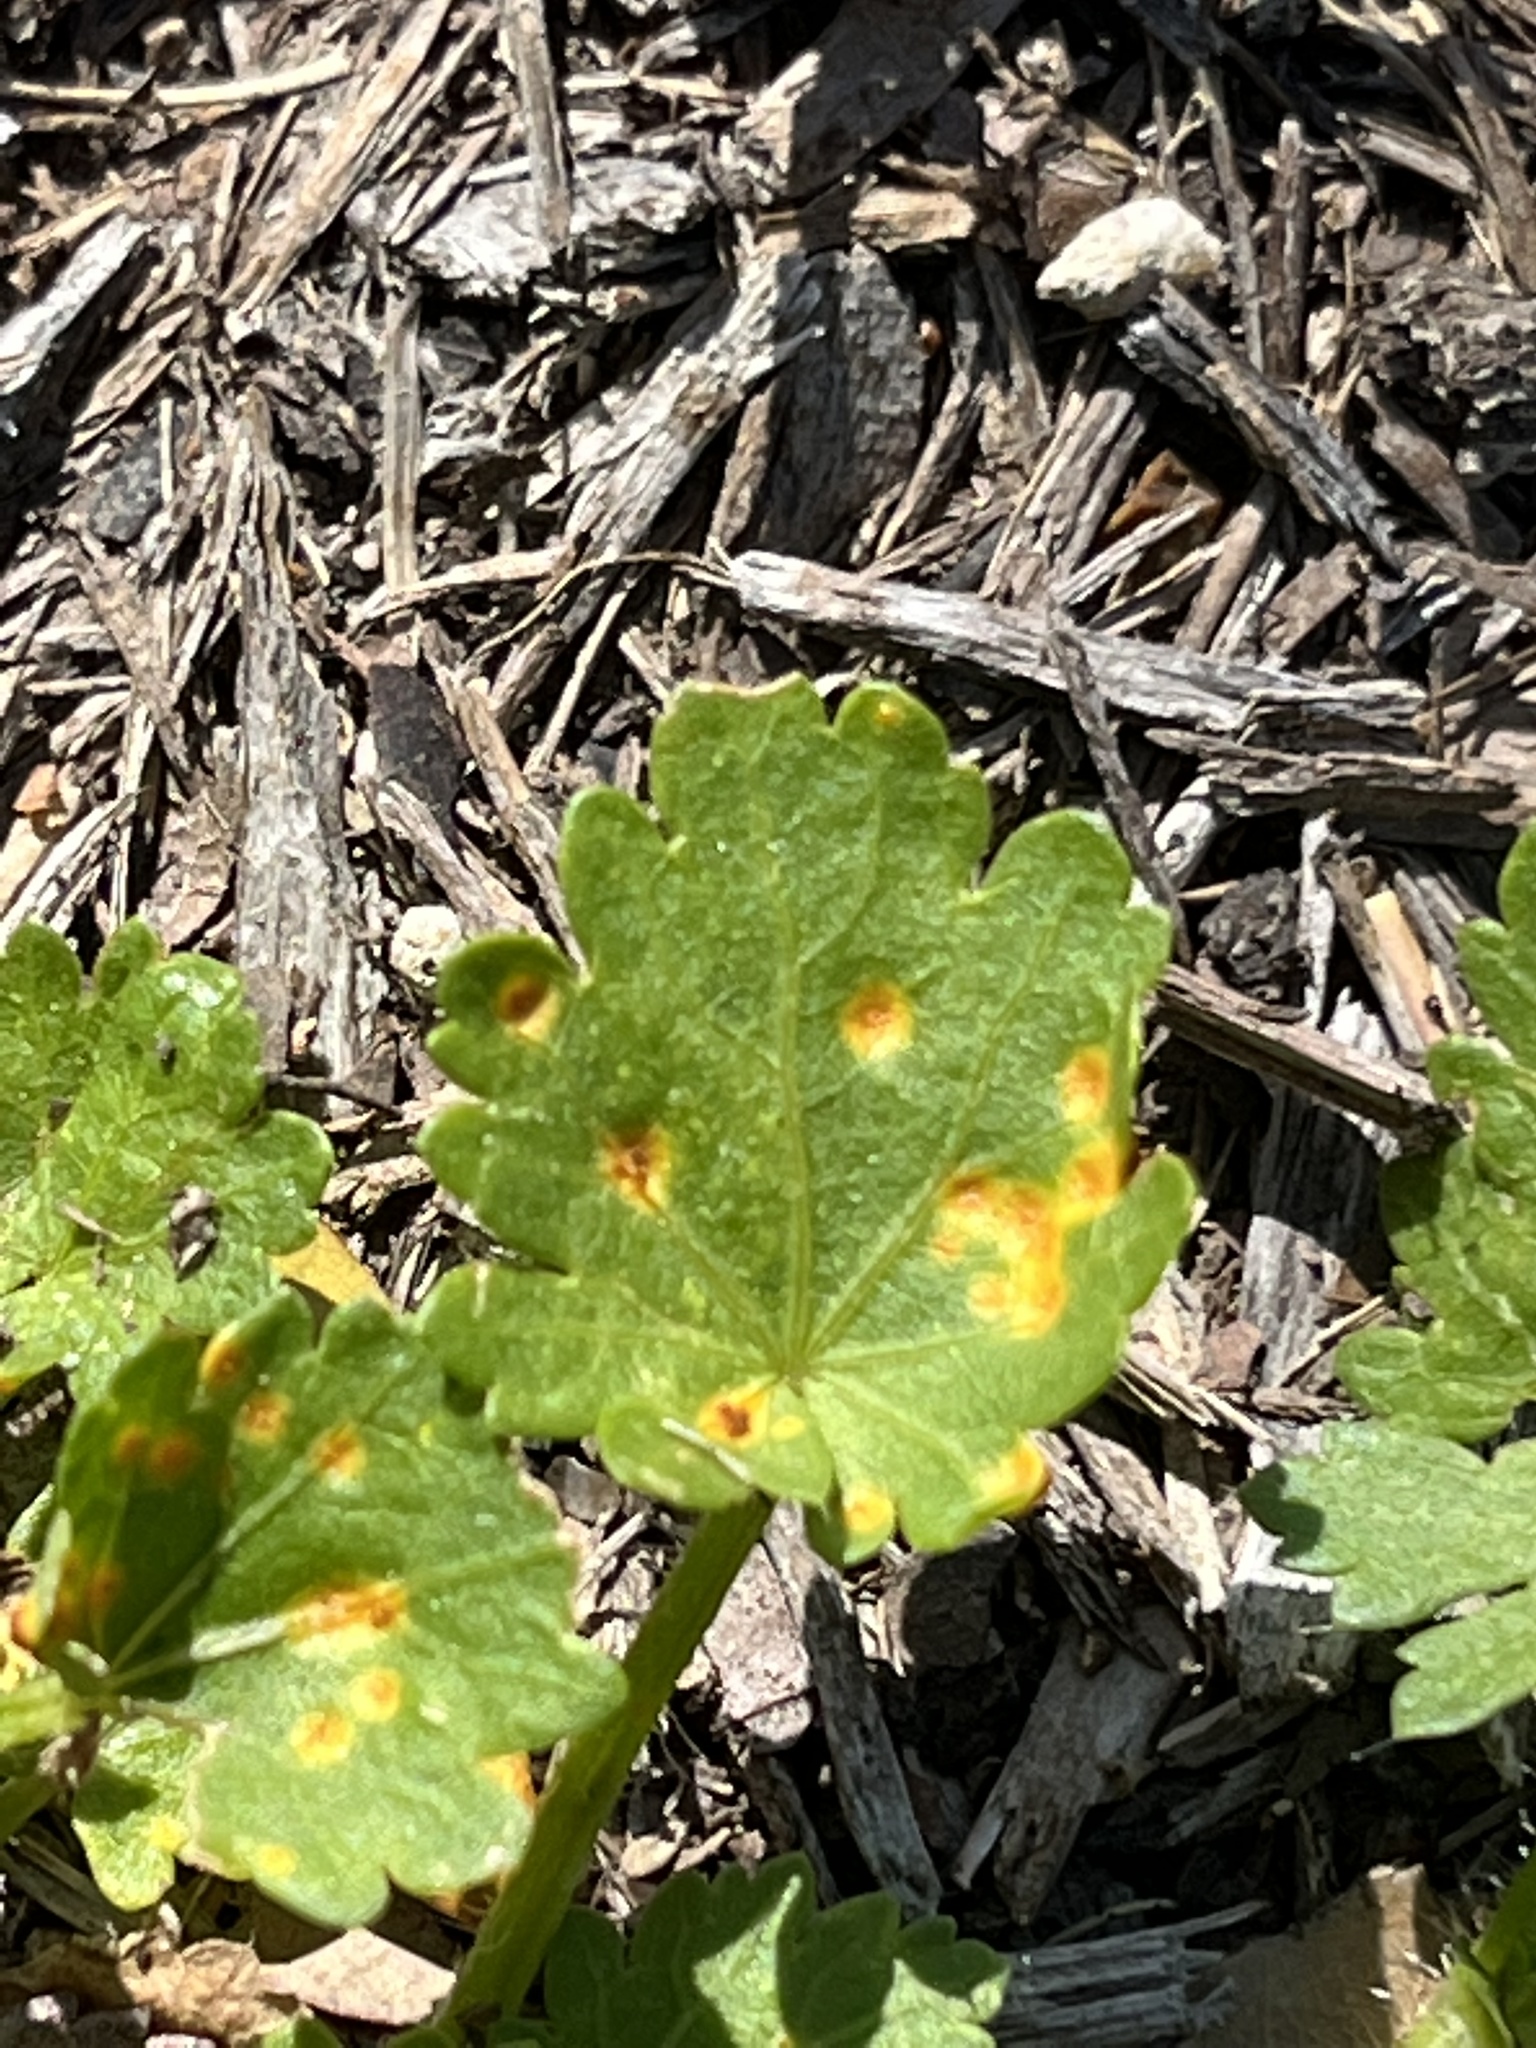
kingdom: Fungi
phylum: Basidiomycota
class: Pucciniomycetes
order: Pucciniales
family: Pucciniaceae
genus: Puccinia
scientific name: Puccinia modiolae
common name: Rust of bristlemallow
